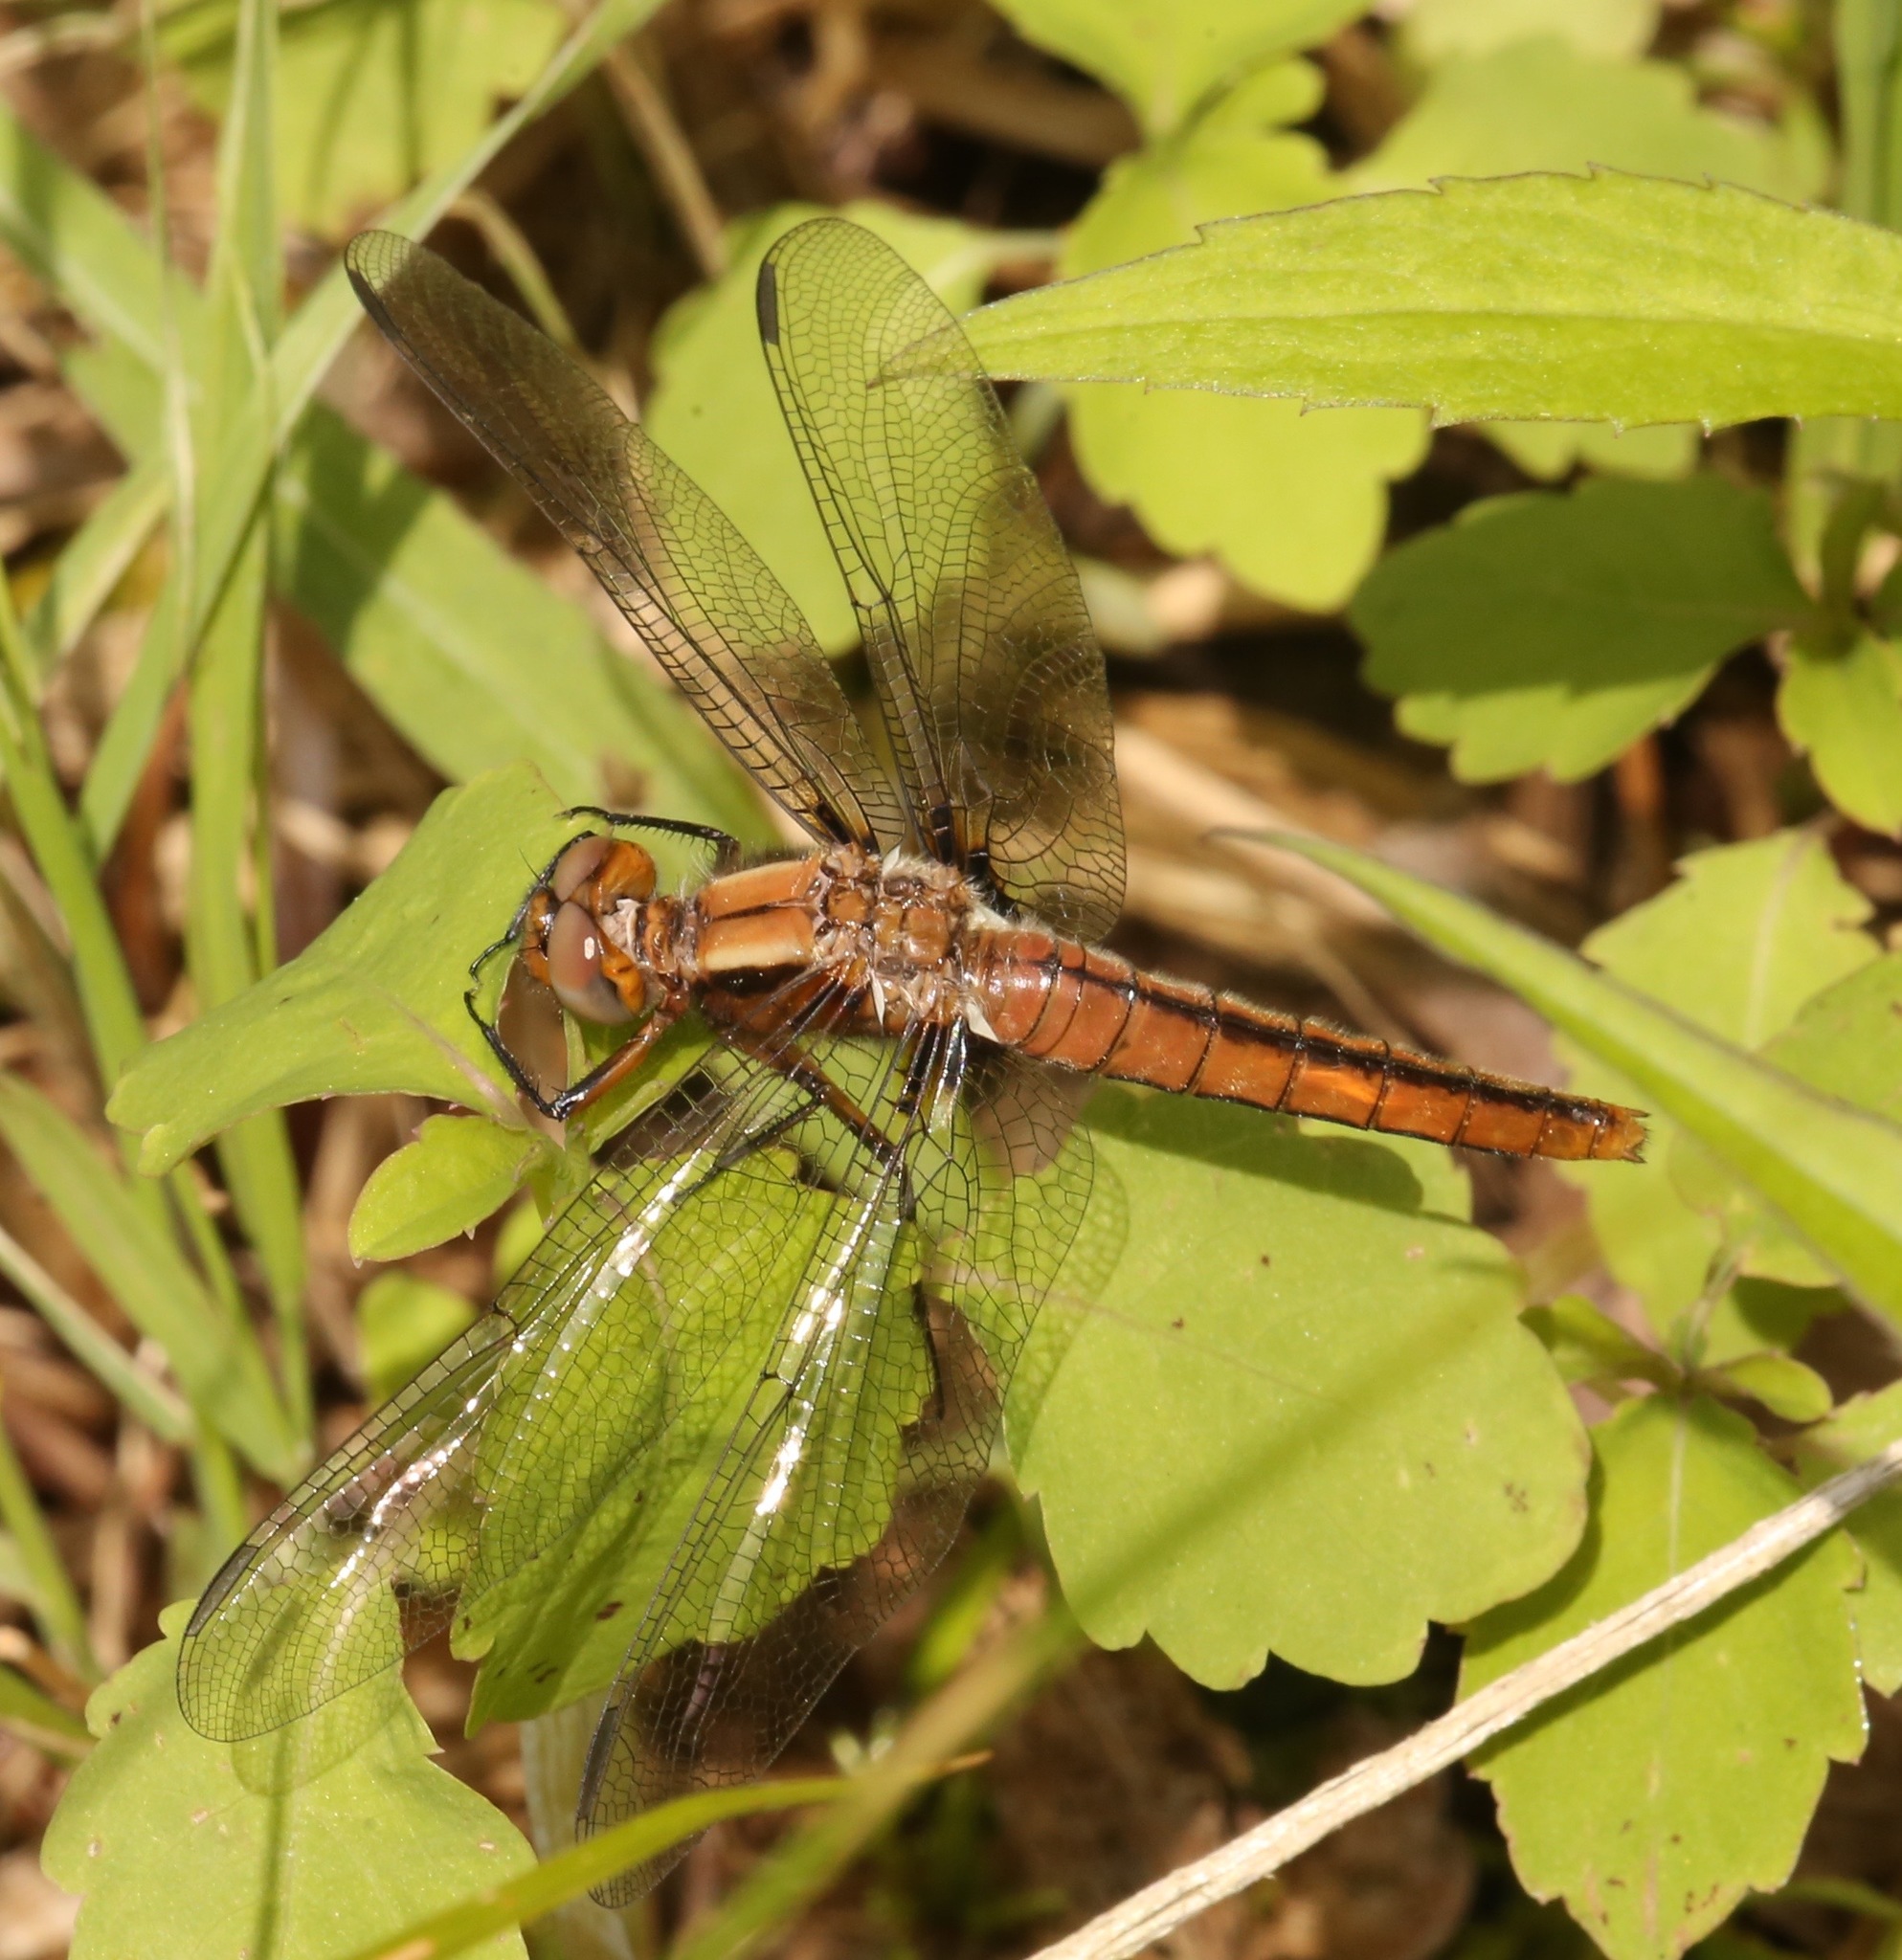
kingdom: Animalia
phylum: Arthropoda
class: Insecta
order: Odonata
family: Libellulidae
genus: Ladona
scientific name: Ladona julia
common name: Chalk-fronted corporal
